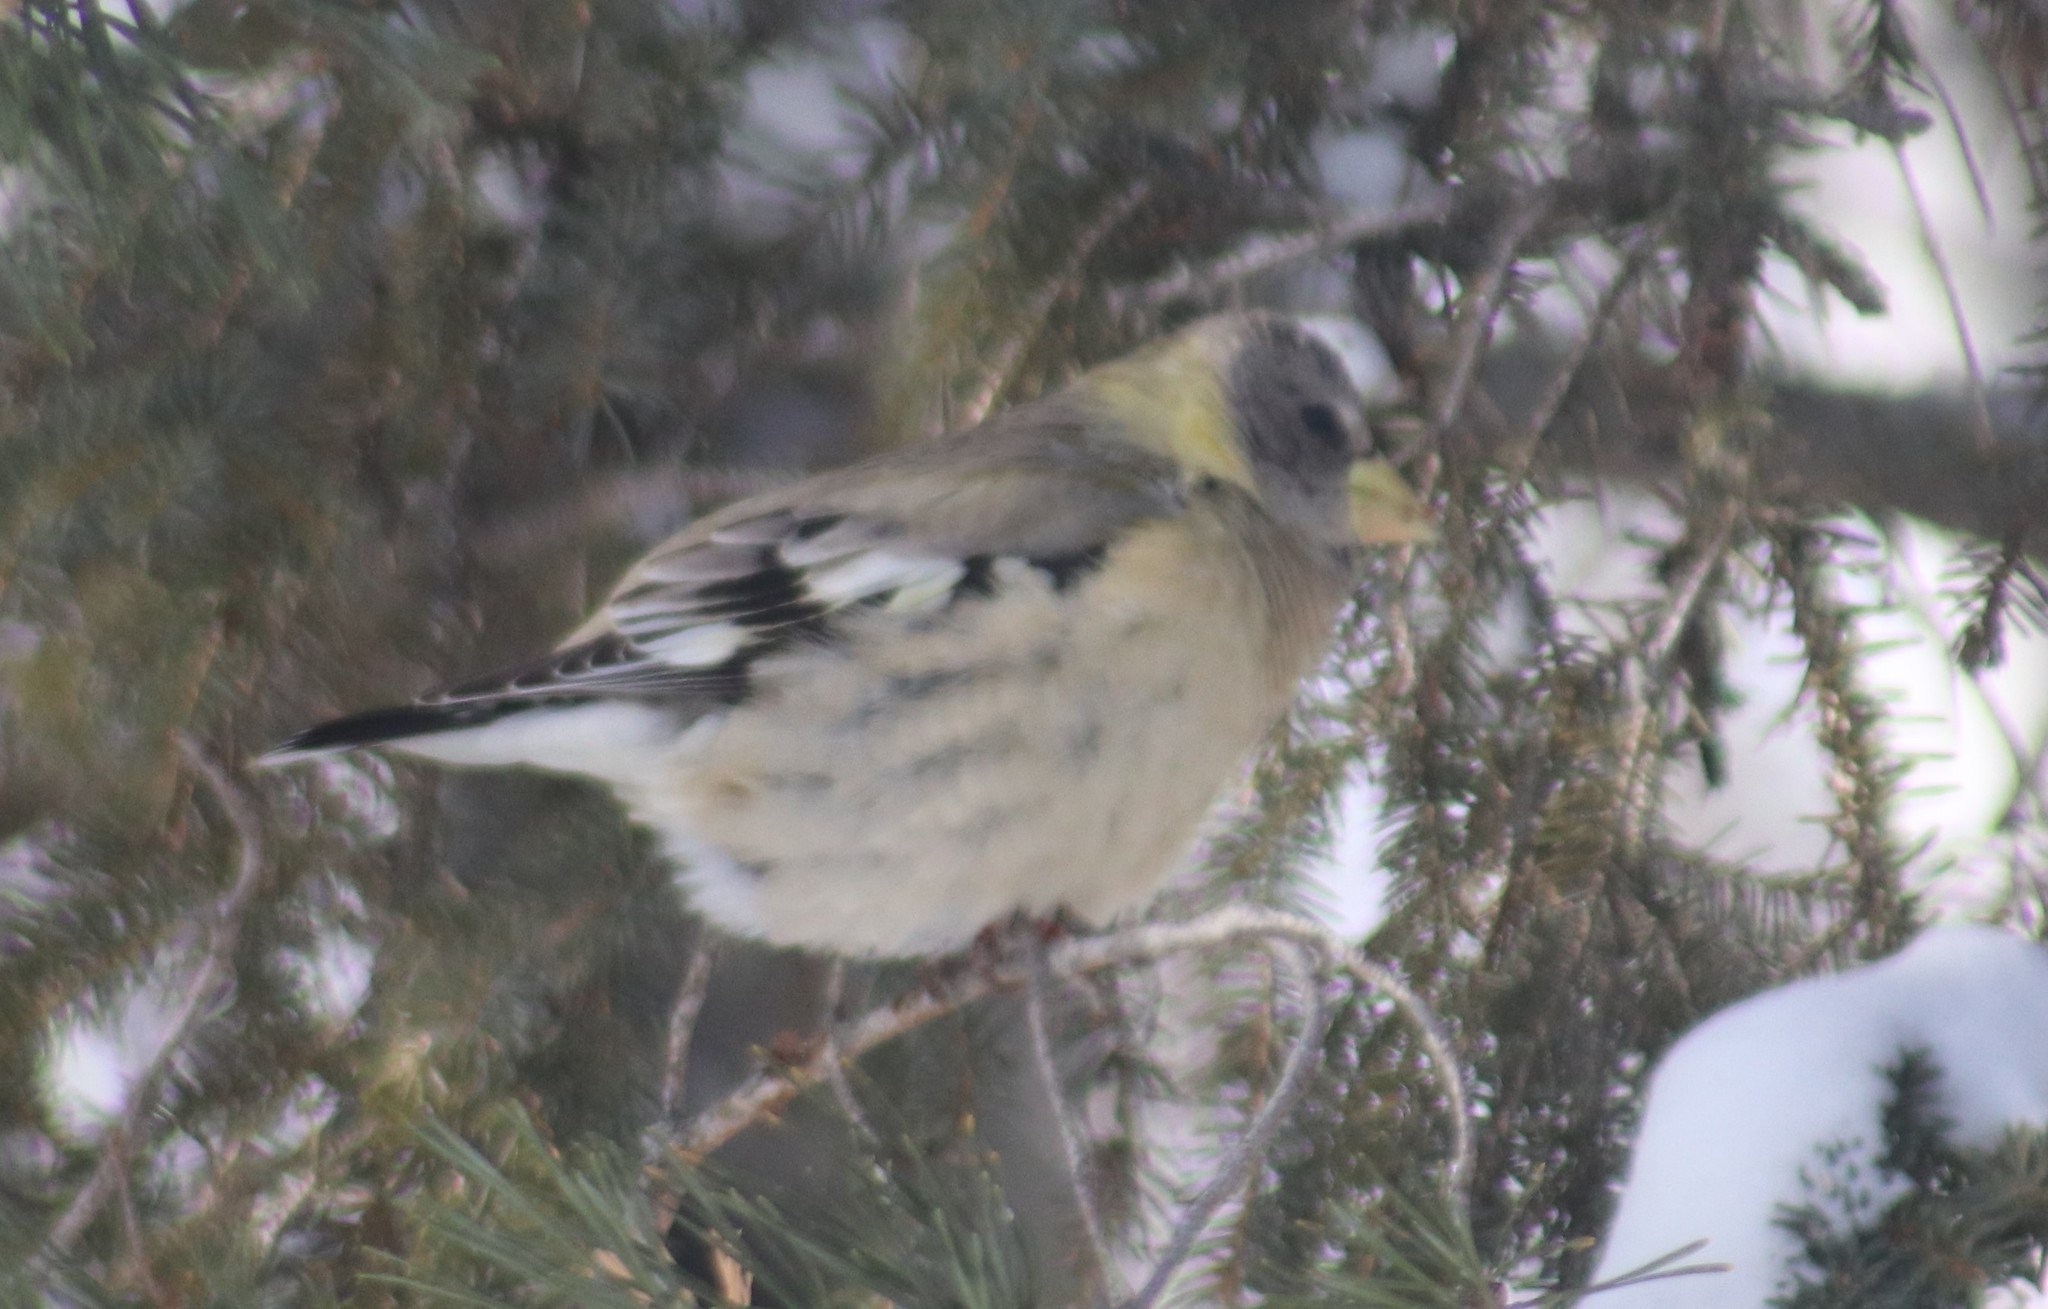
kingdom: Animalia
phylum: Chordata
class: Aves
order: Passeriformes
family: Fringillidae
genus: Hesperiphona
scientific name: Hesperiphona vespertina
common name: Evening grosbeak
